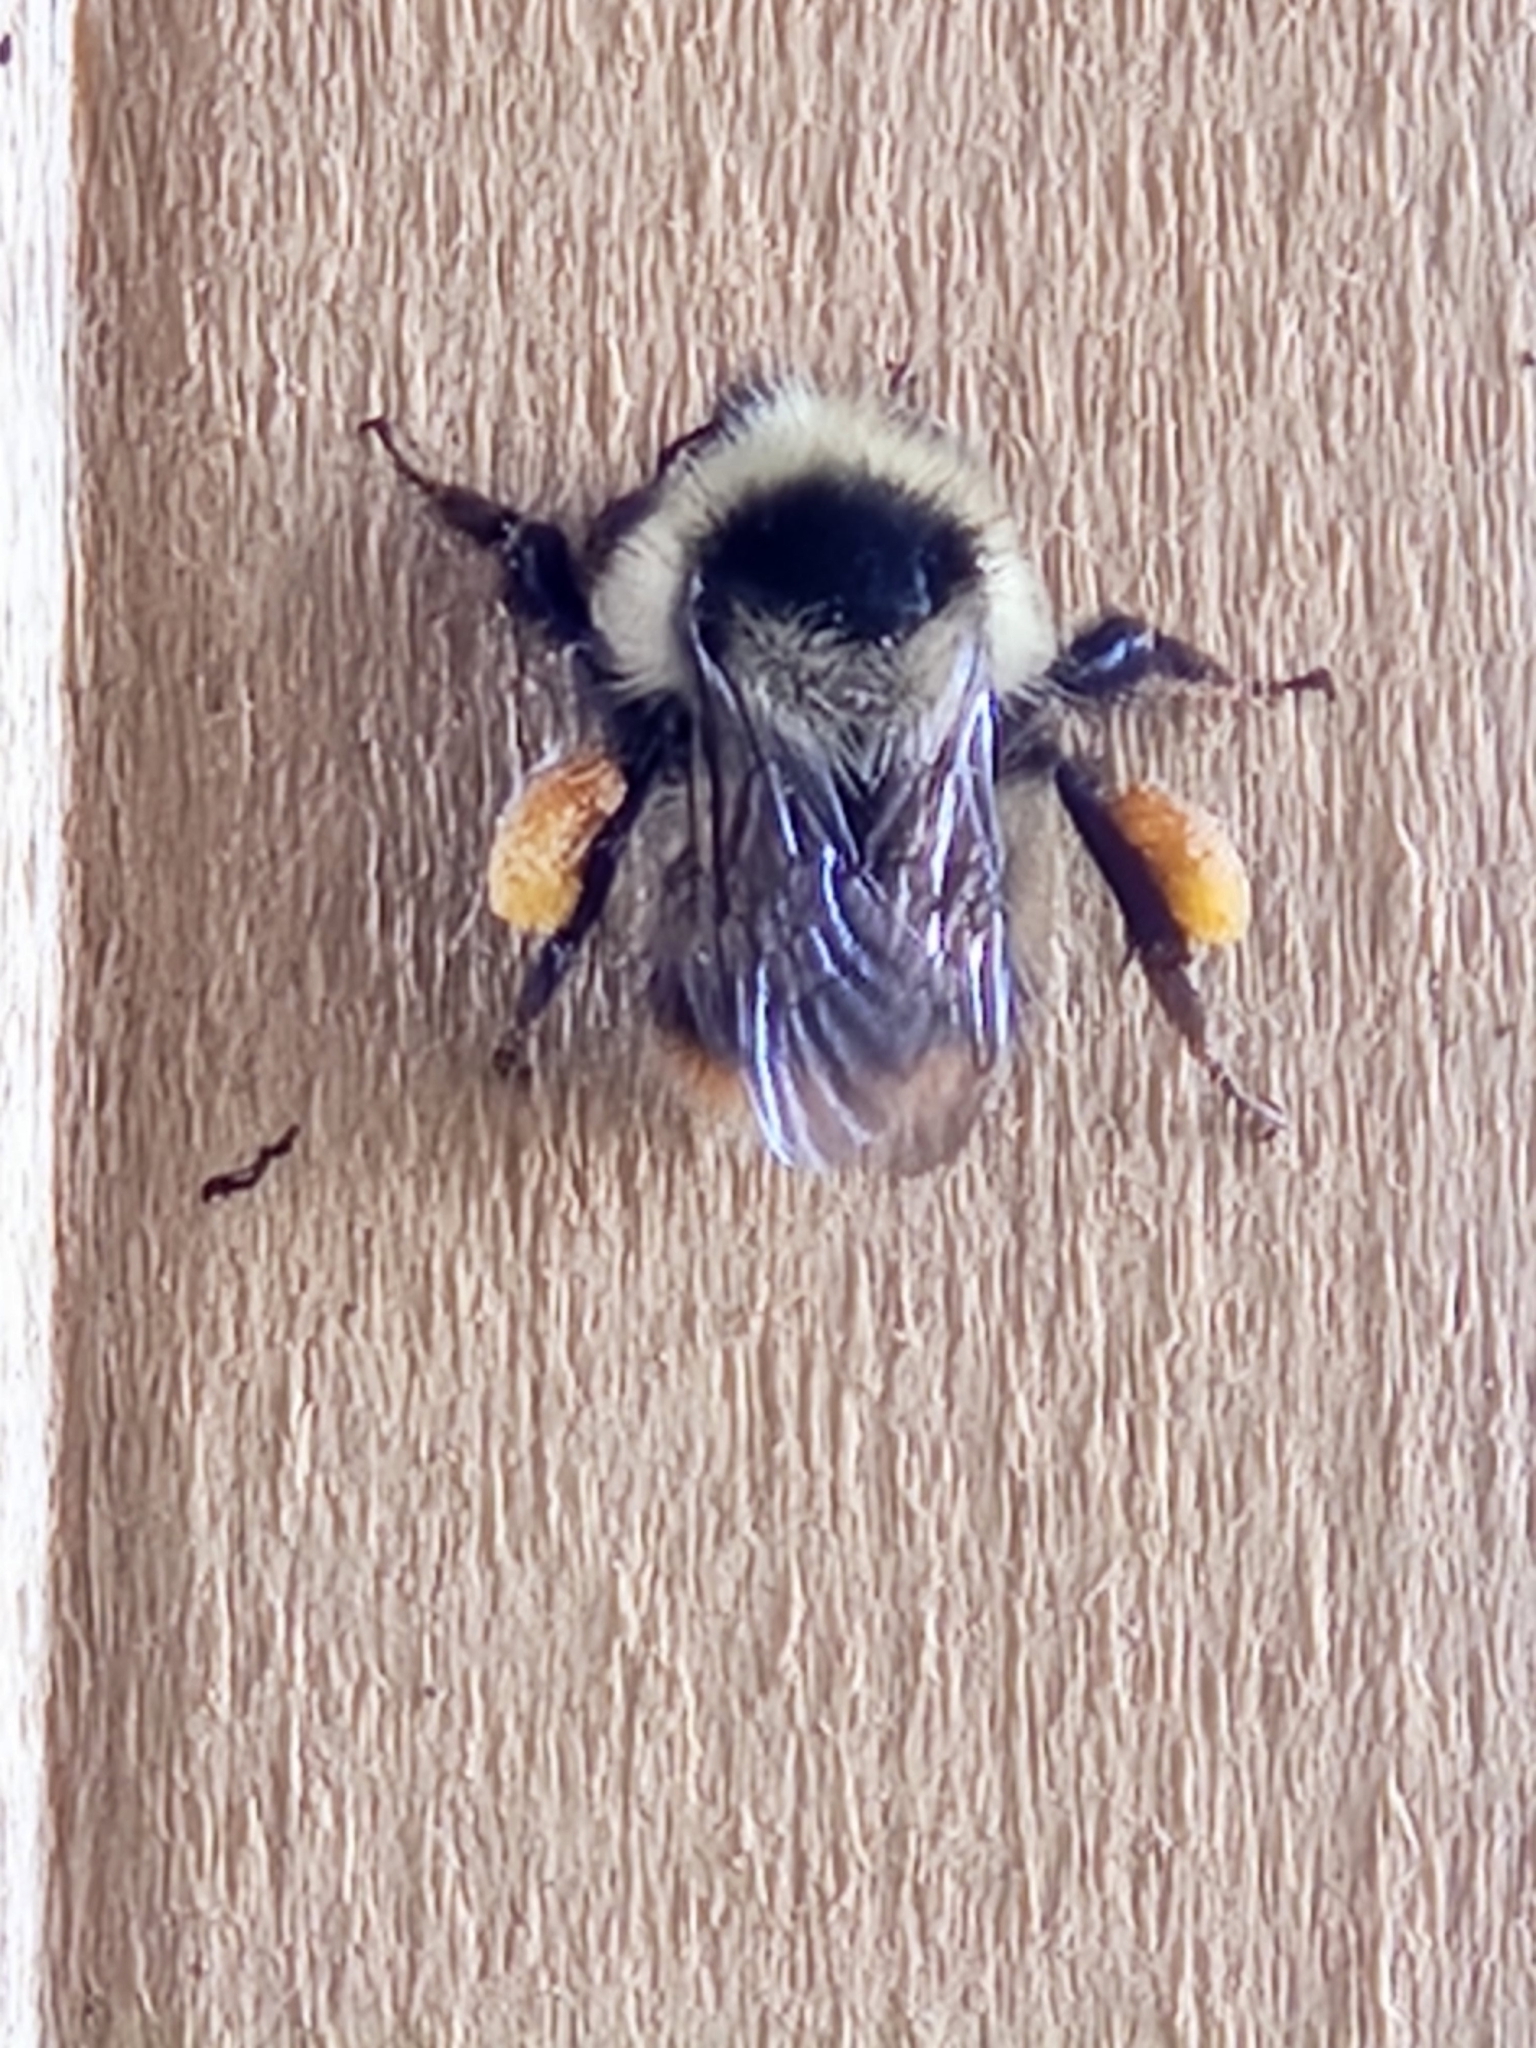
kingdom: Animalia
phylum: Arthropoda
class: Insecta
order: Hymenoptera
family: Apidae
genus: Bombus
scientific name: Bombus frigidus
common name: Frigid bumble bee
